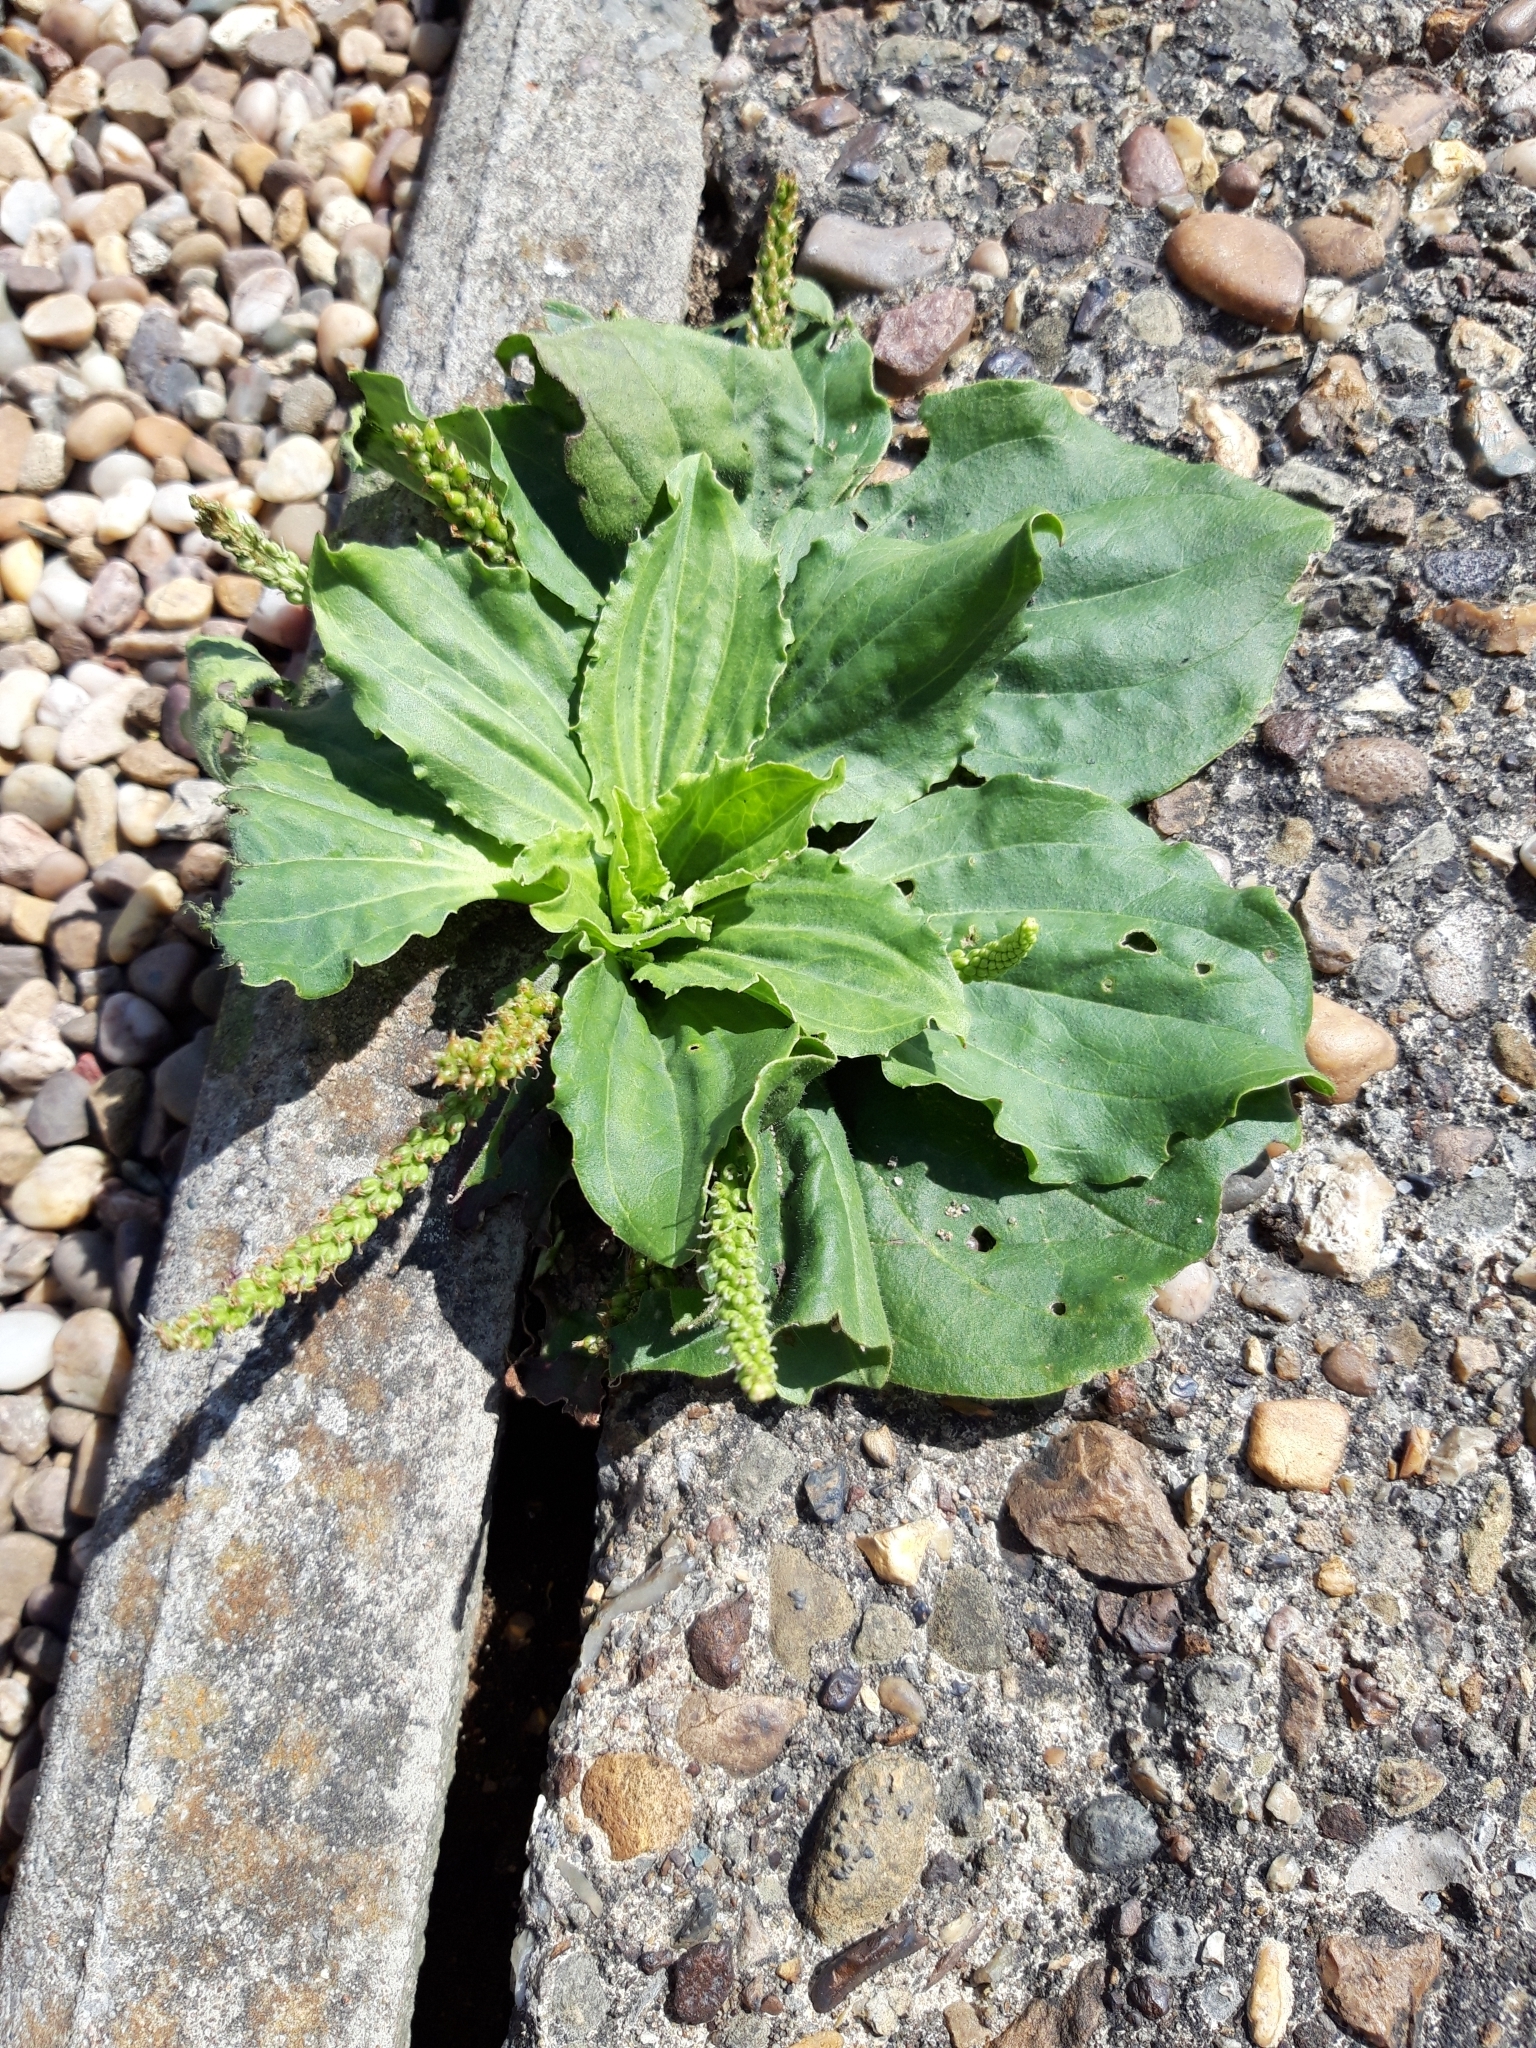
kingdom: Plantae
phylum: Tracheophyta
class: Magnoliopsida
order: Lamiales
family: Plantaginaceae
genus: Plantago
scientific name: Plantago major
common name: Common plantain
